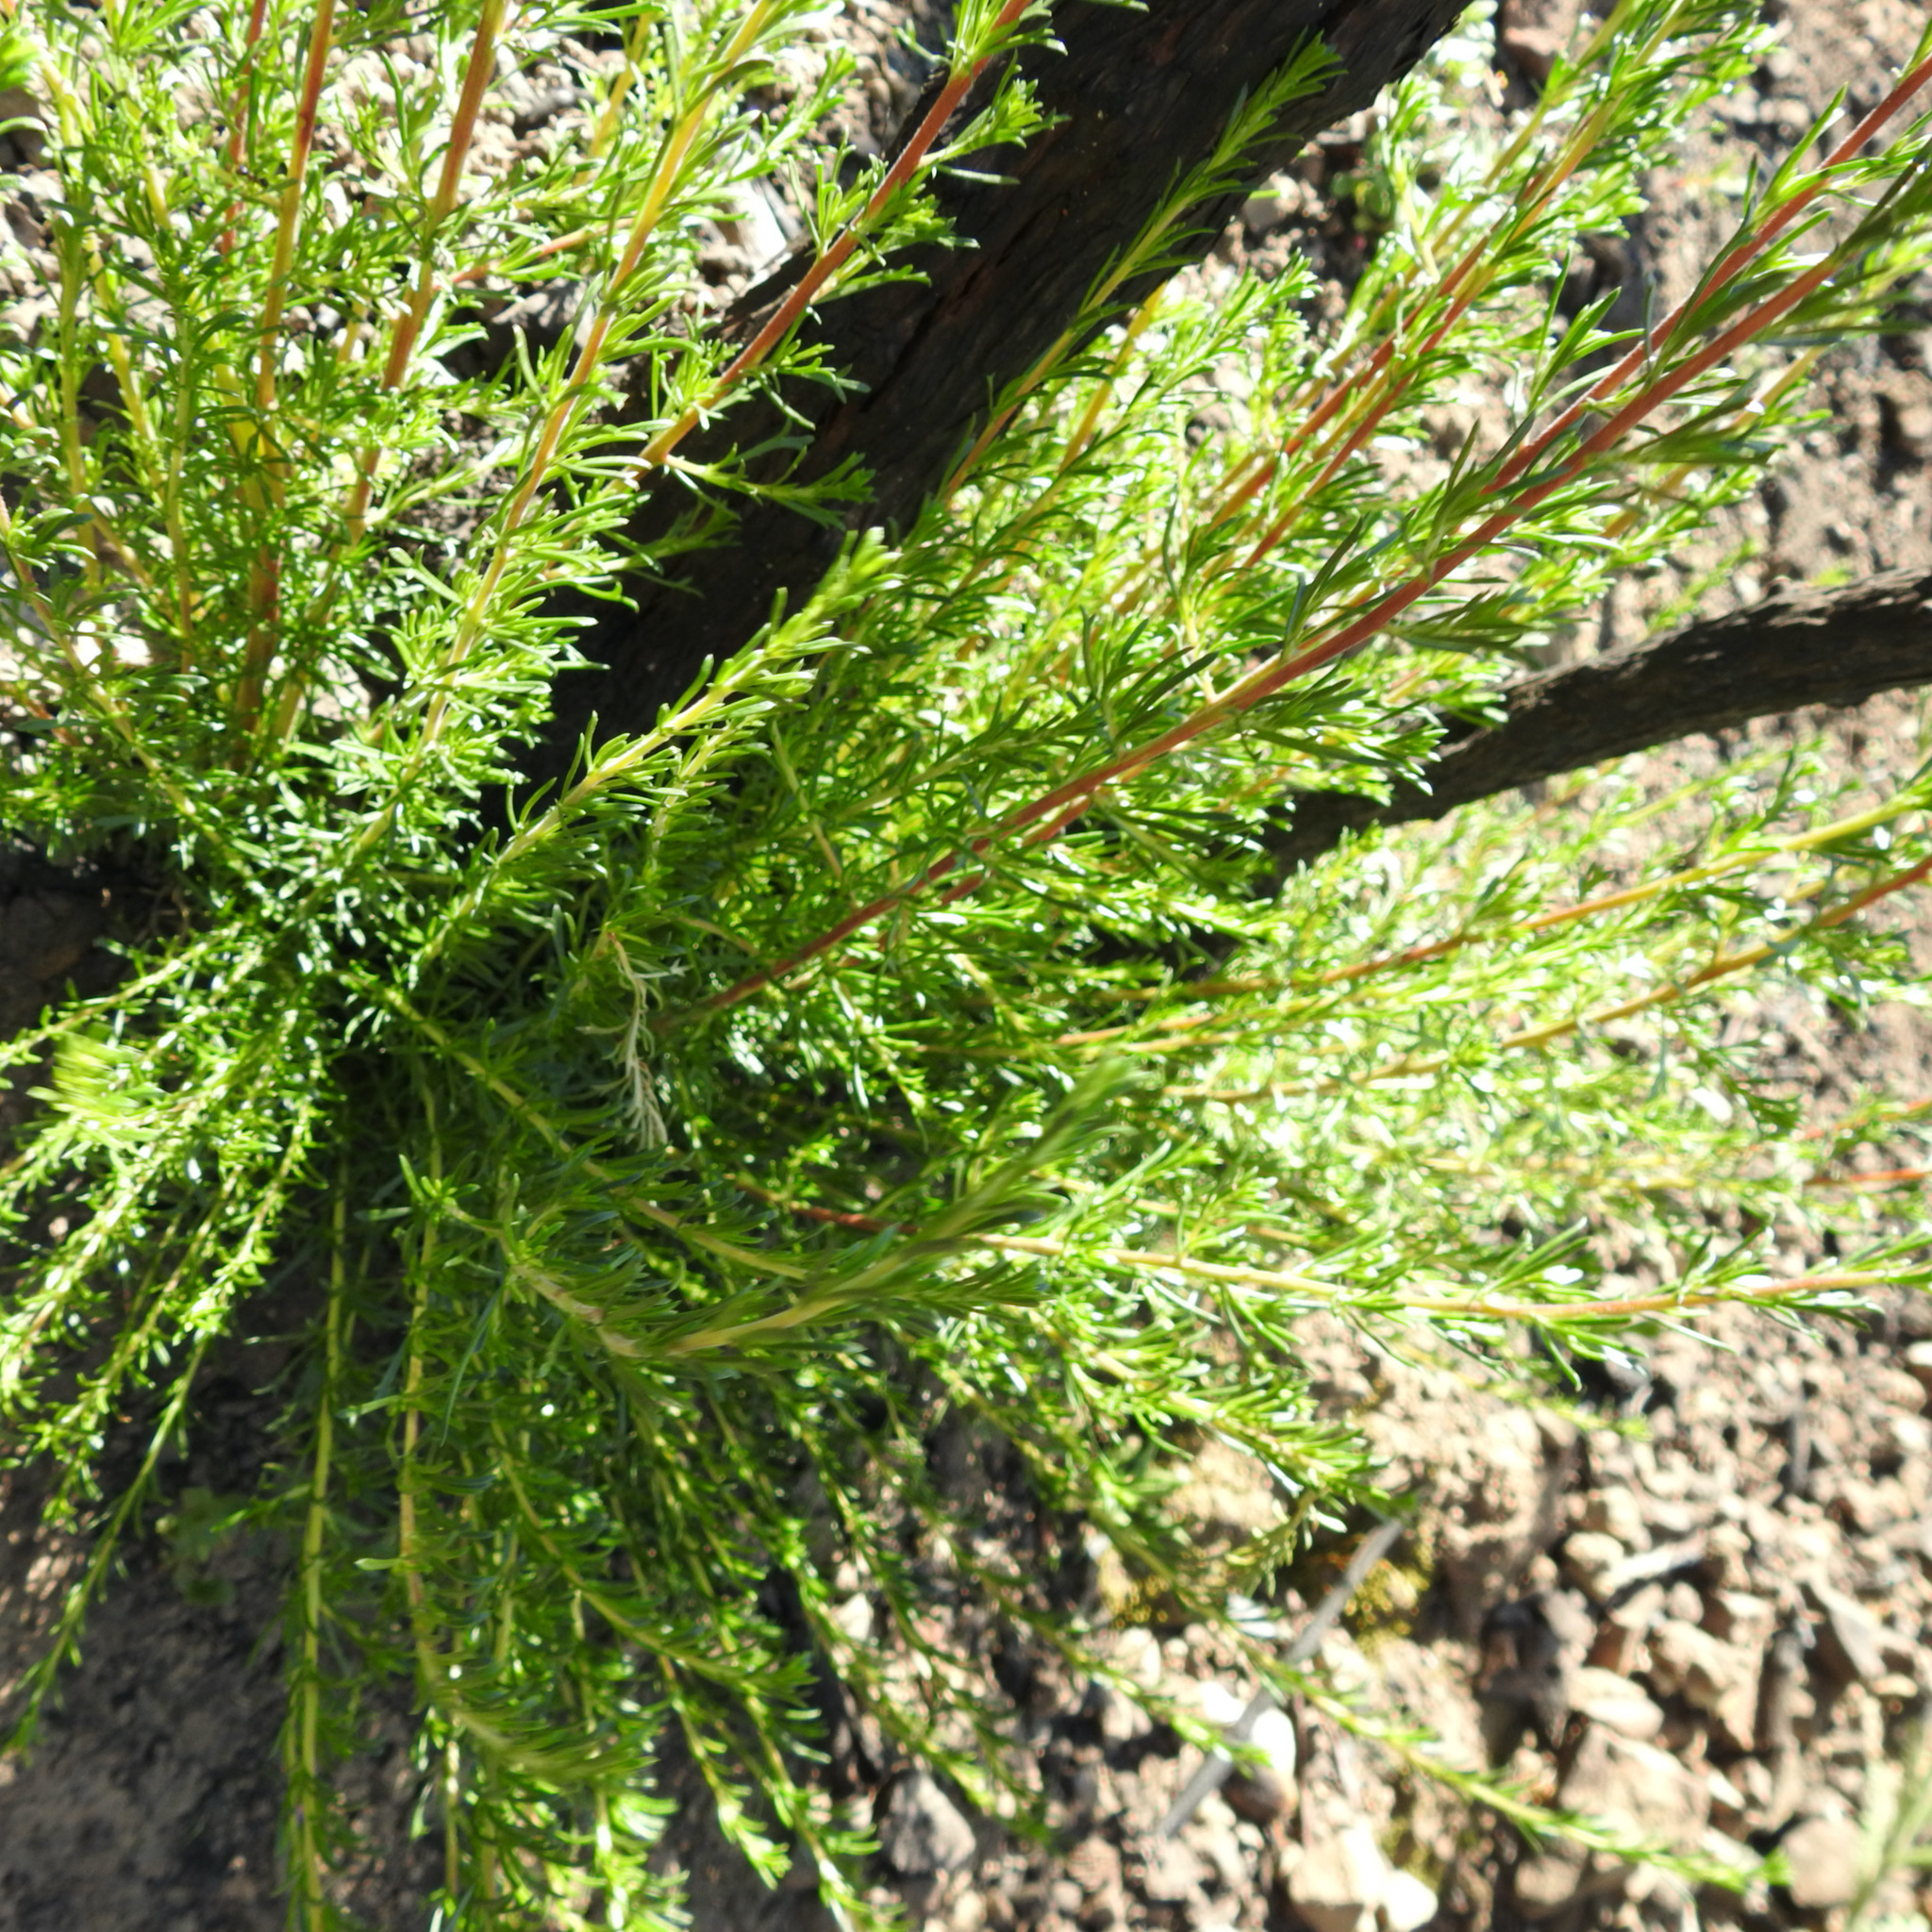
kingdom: Plantae
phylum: Tracheophyta
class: Magnoliopsida
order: Rosales
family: Rosaceae
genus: Adenostoma
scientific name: Adenostoma fasciculatum
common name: Chamise
